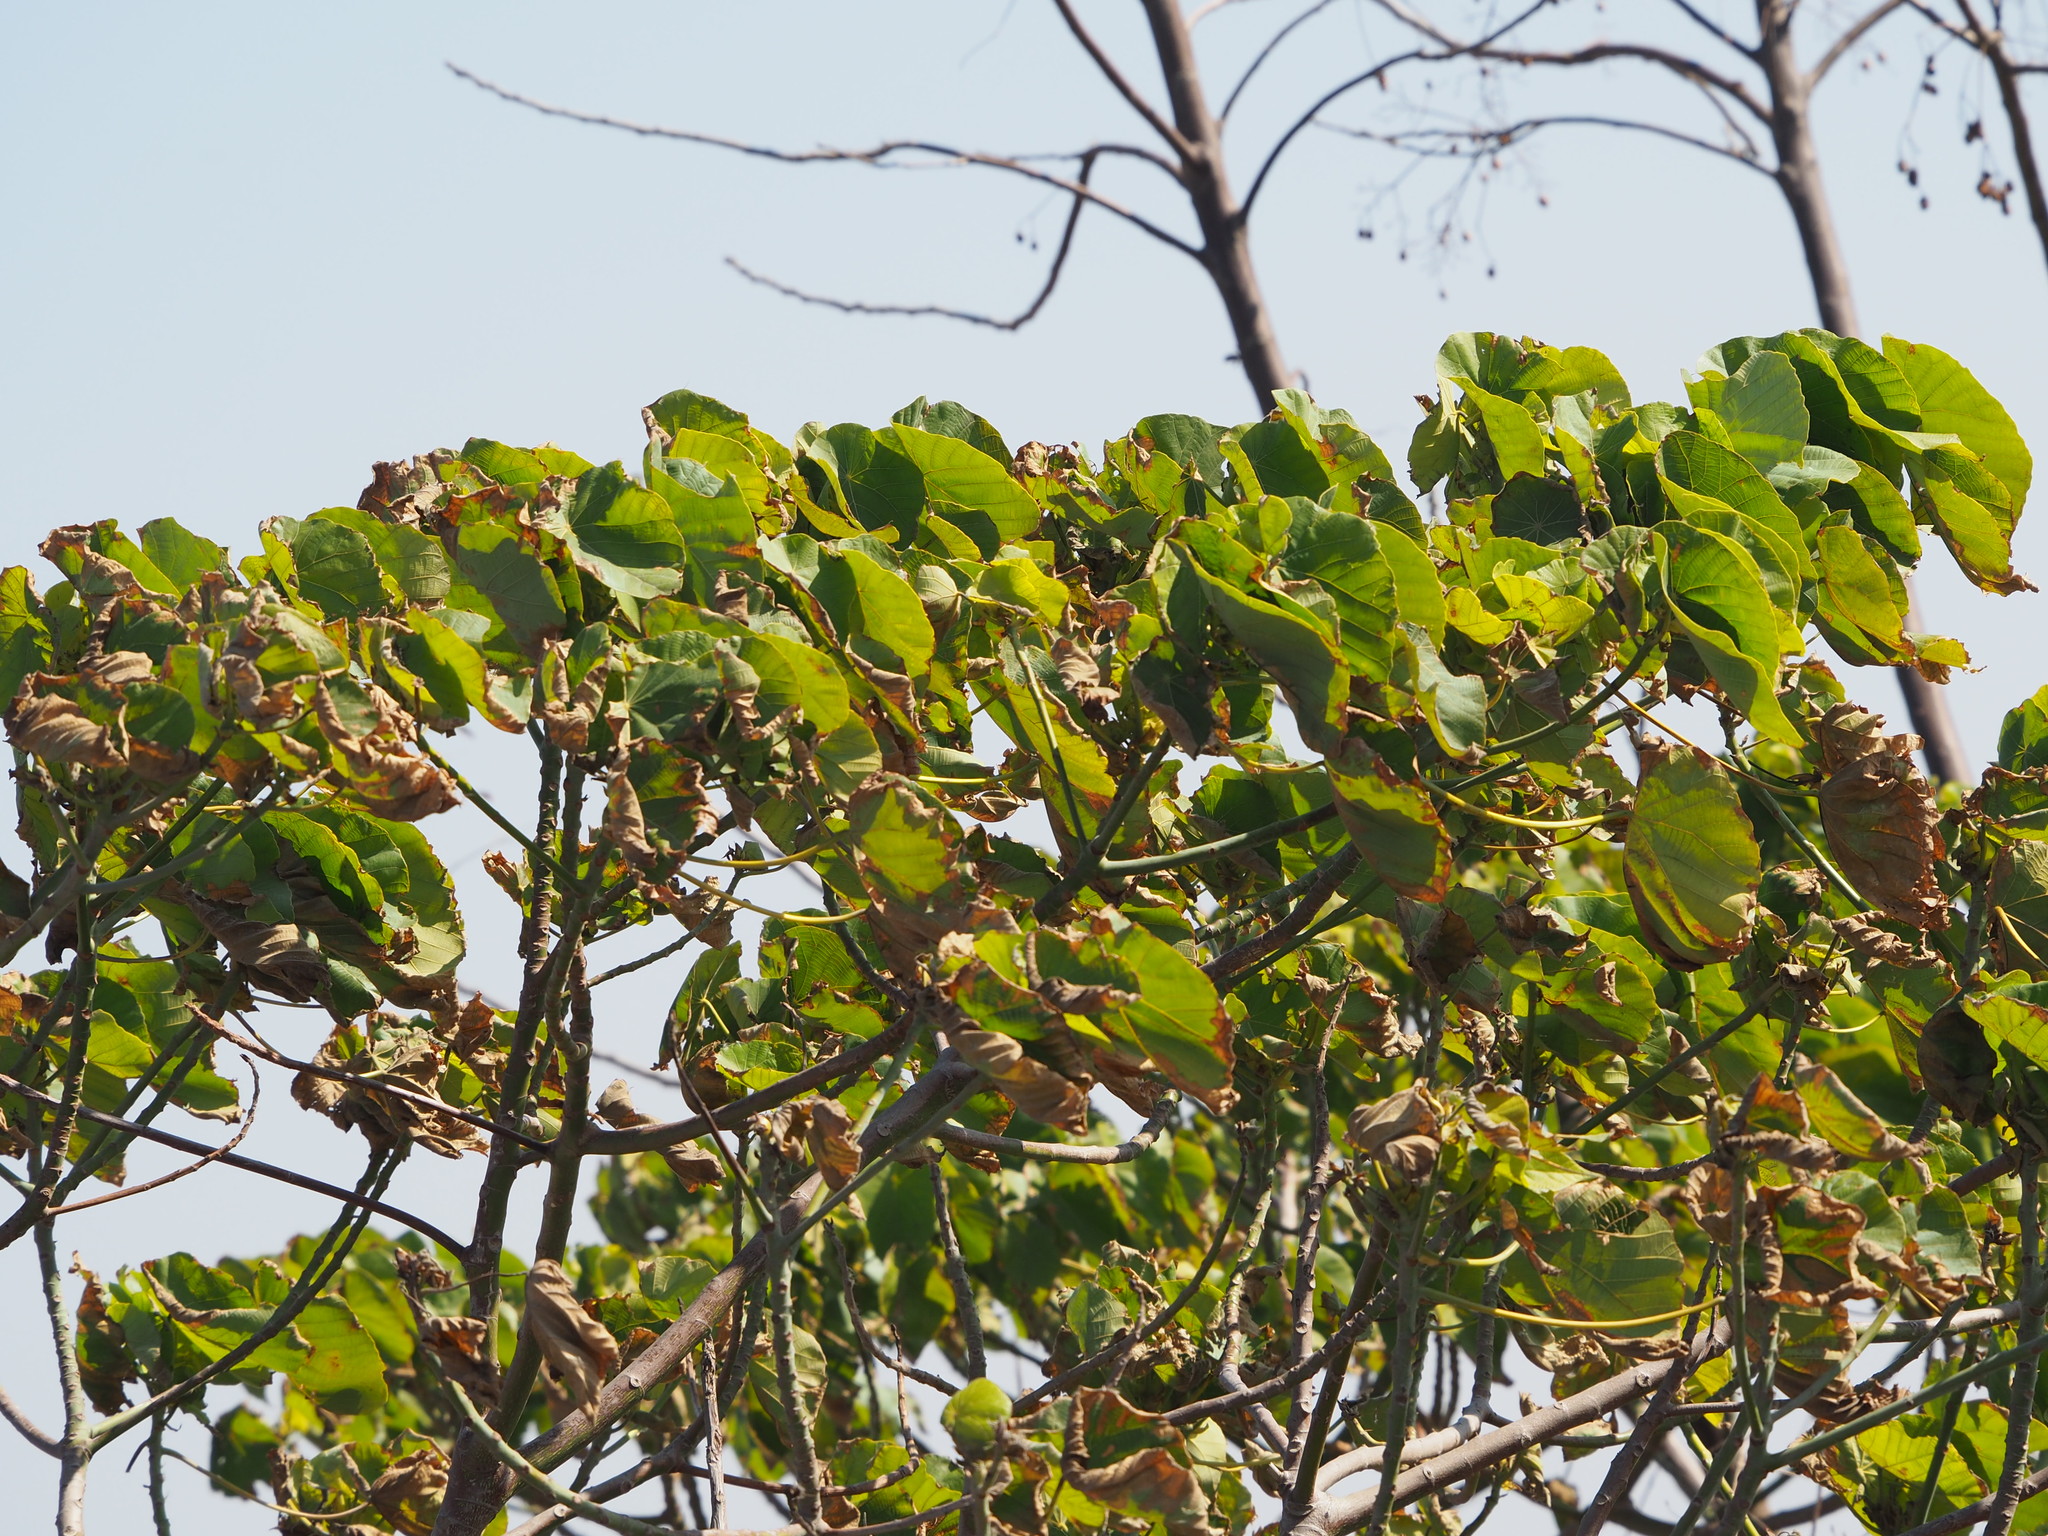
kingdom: Plantae
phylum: Tracheophyta
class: Magnoliopsida
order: Malpighiales
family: Euphorbiaceae
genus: Macaranga
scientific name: Macaranga tanarius
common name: Parasol leaf tree
